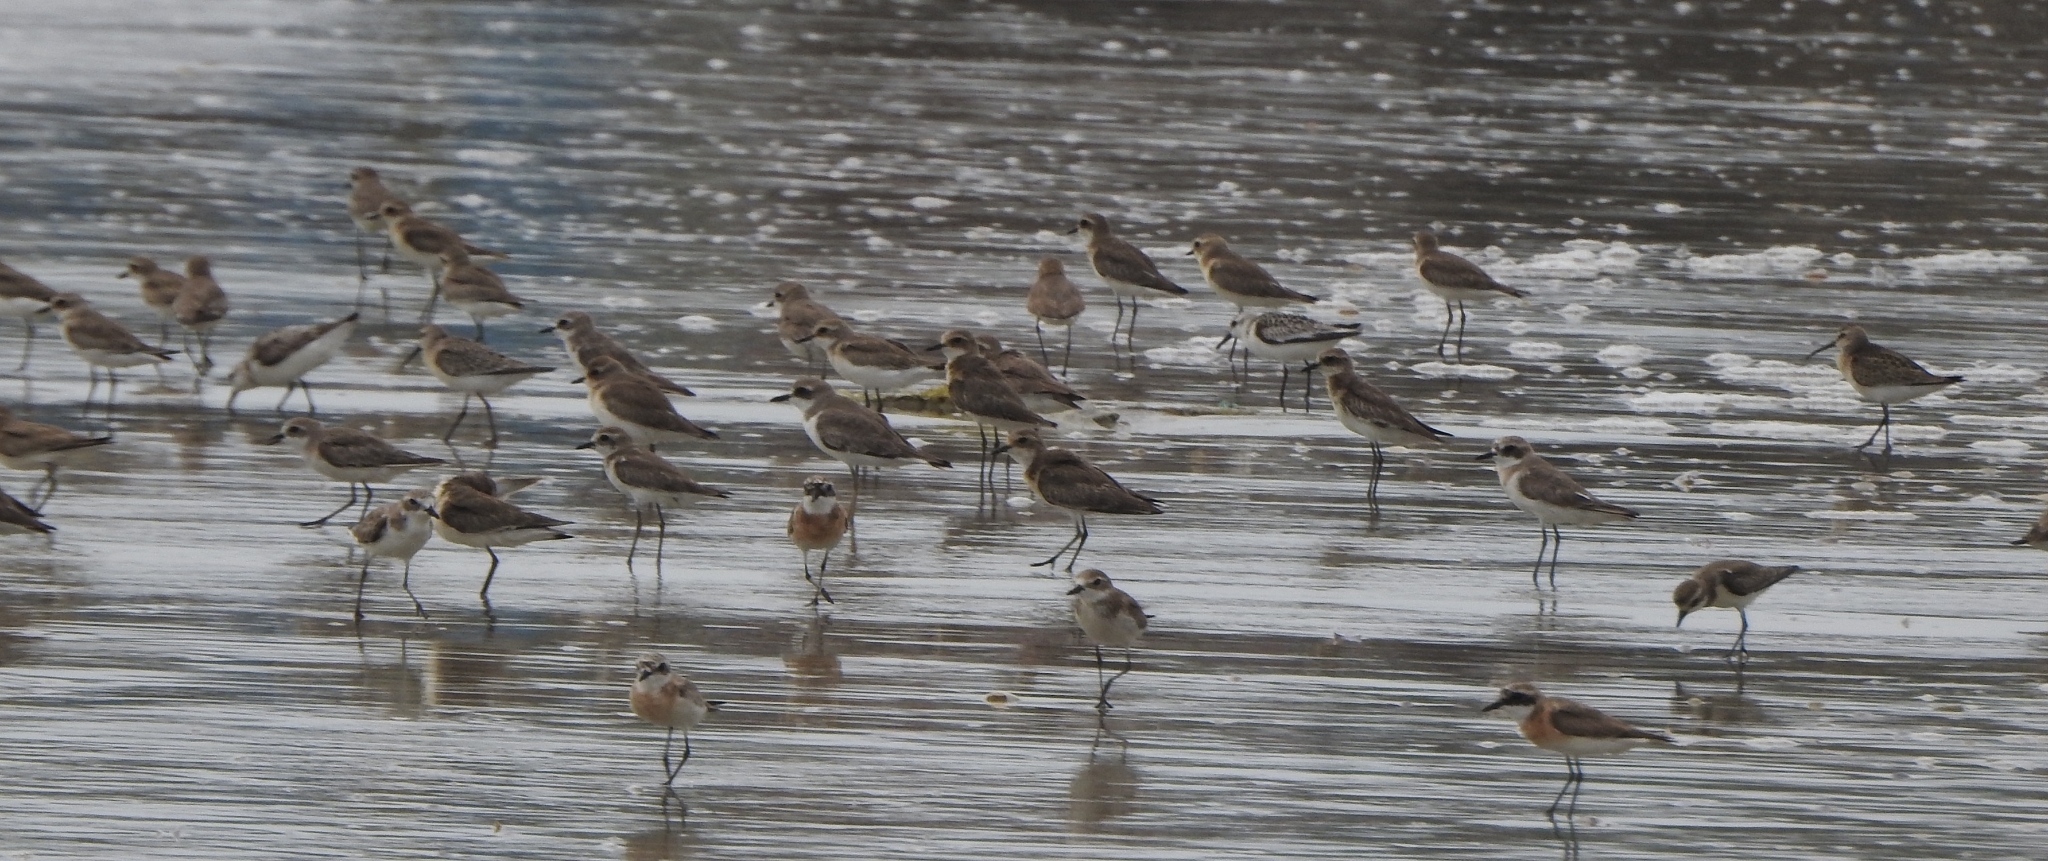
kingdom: Animalia
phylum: Chordata
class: Aves
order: Charadriiformes
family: Charadriidae
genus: Anarhynchus
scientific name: Anarhynchus
